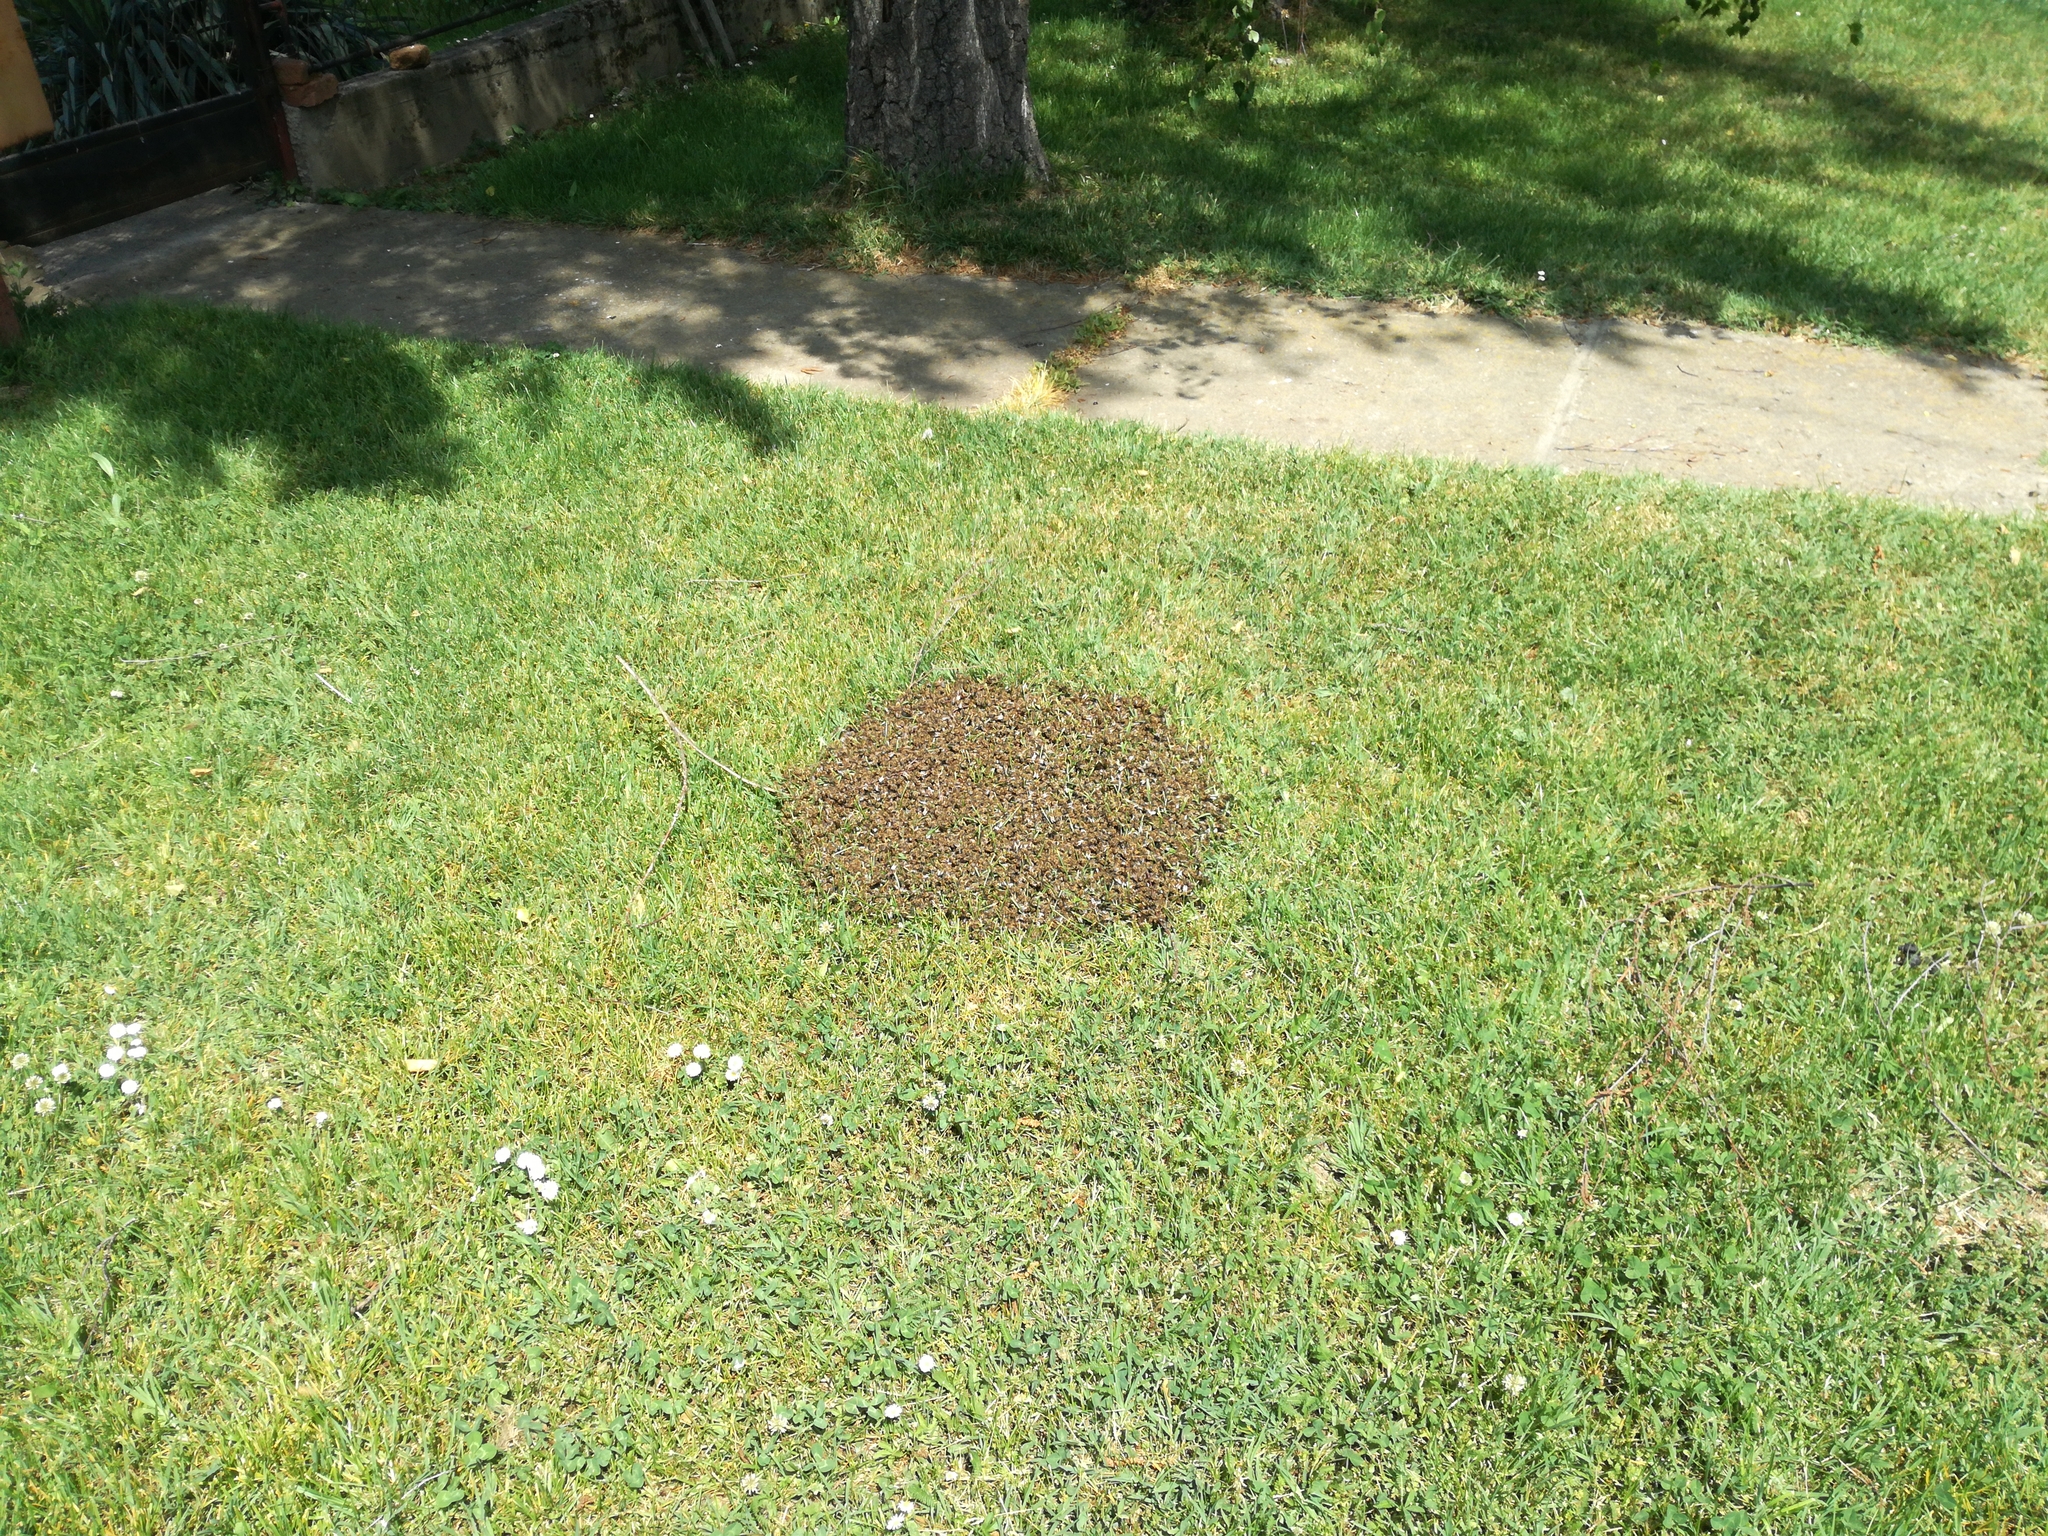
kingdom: Animalia
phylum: Arthropoda
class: Insecta
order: Hymenoptera
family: Apidae
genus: Apis
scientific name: Apis mellifera
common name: Honey bee
